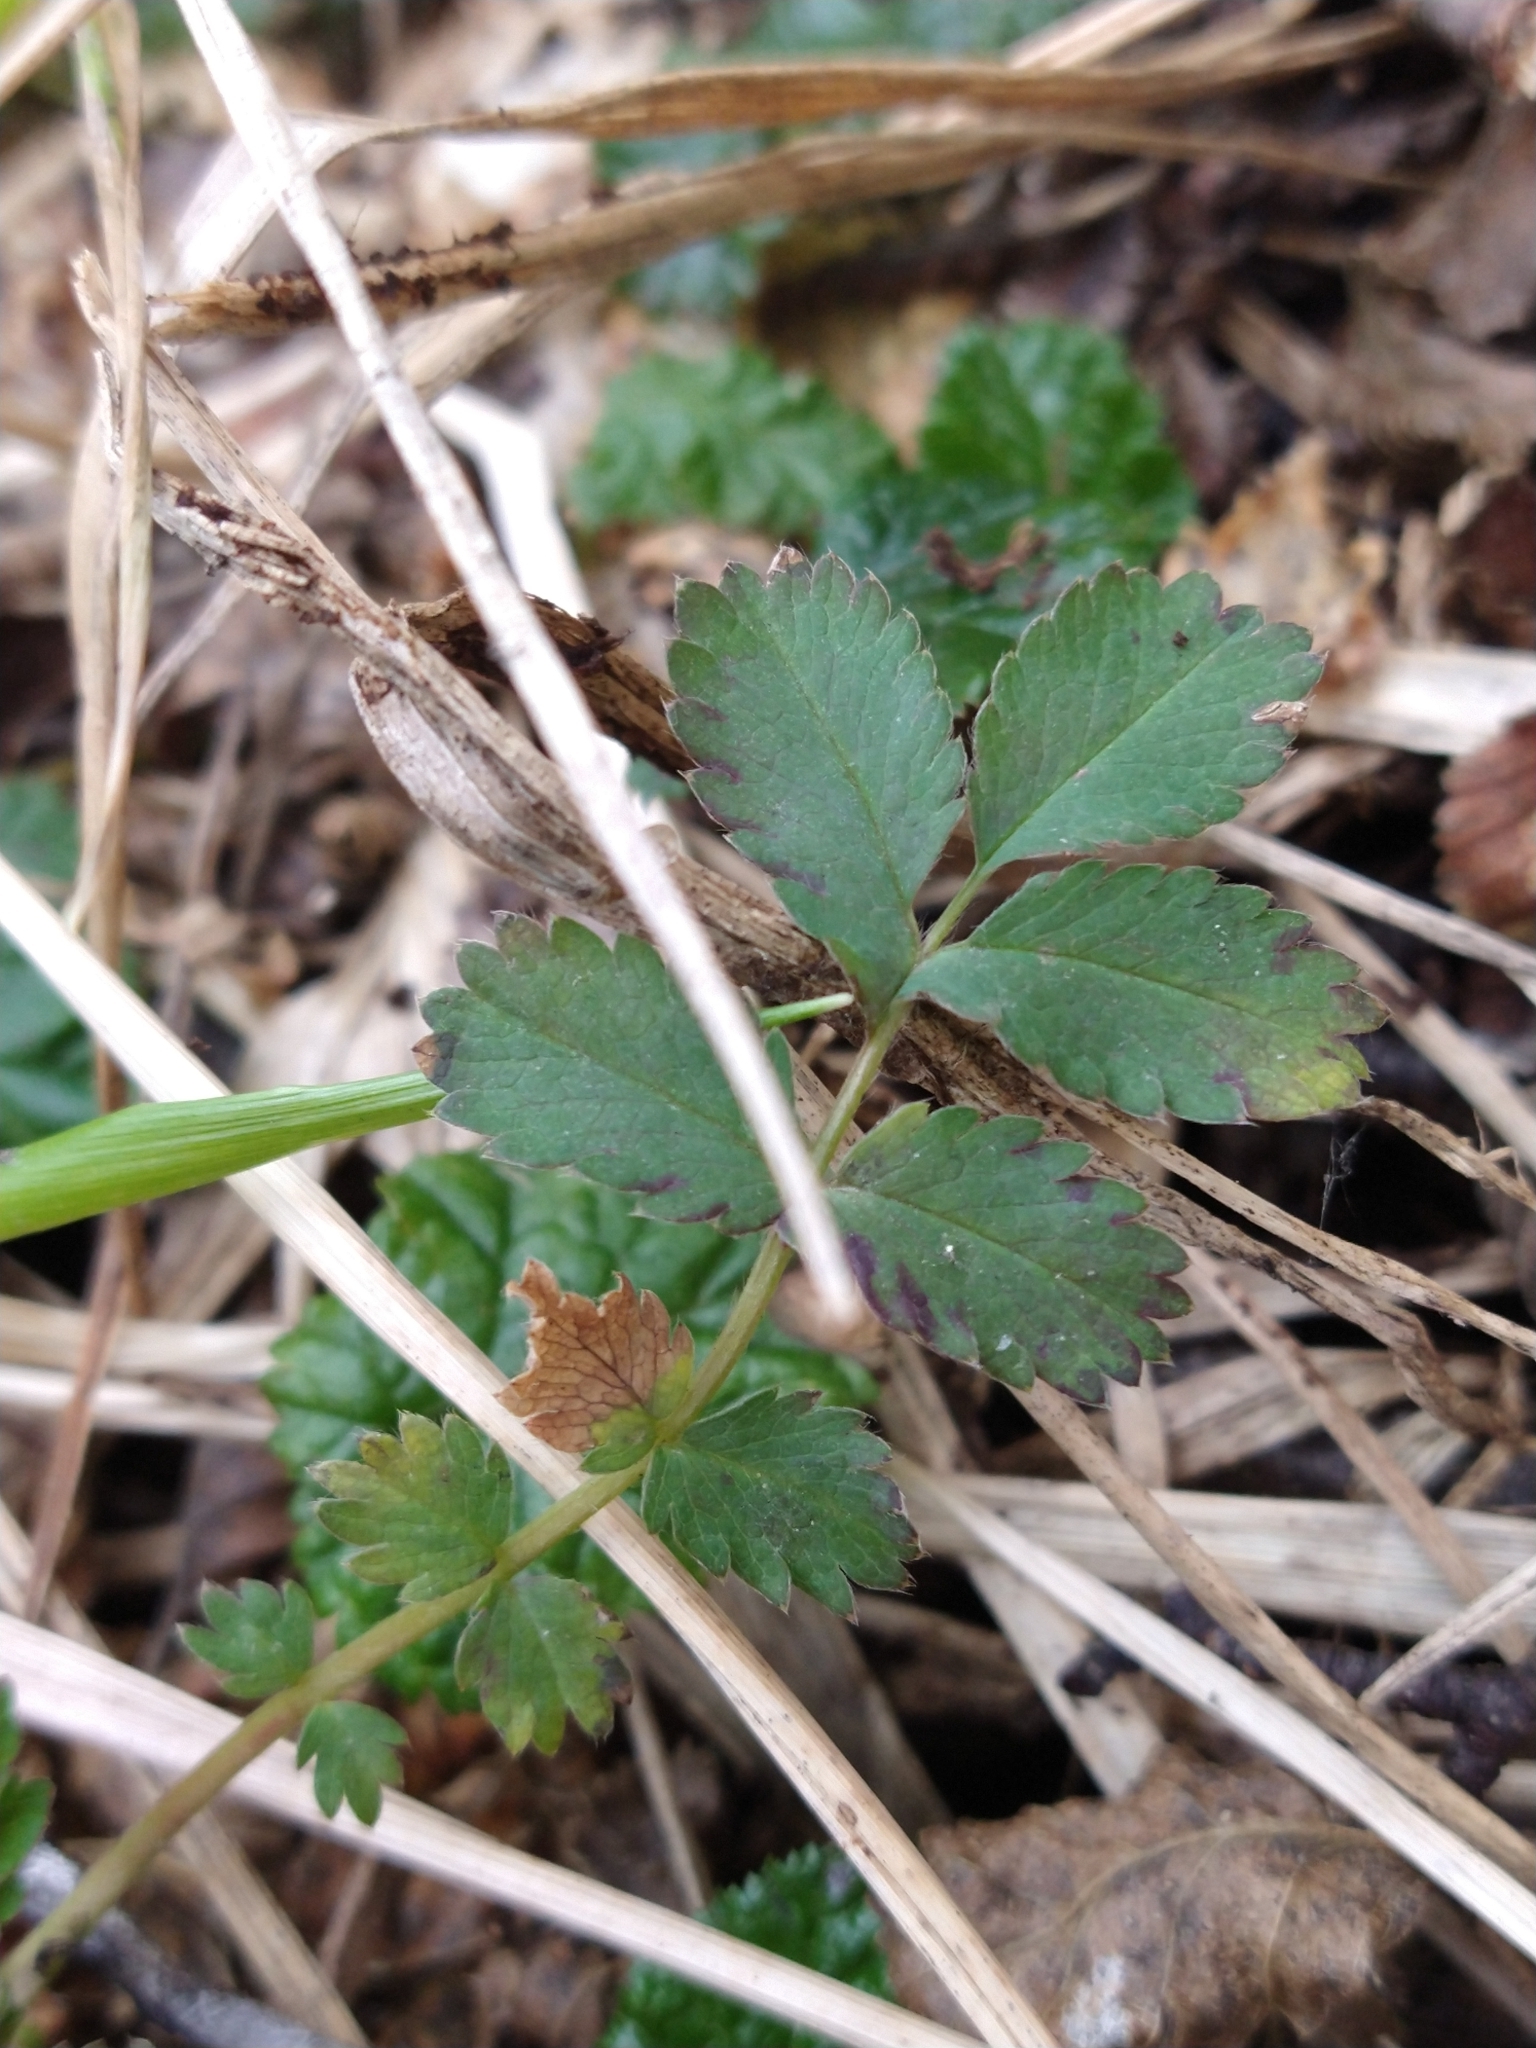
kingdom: Plantae
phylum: Tracheophyta
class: Magnoliopsida
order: Rosales
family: Rosaceae
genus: Acaena
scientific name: Acaena magellanica
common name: New zealand burr
